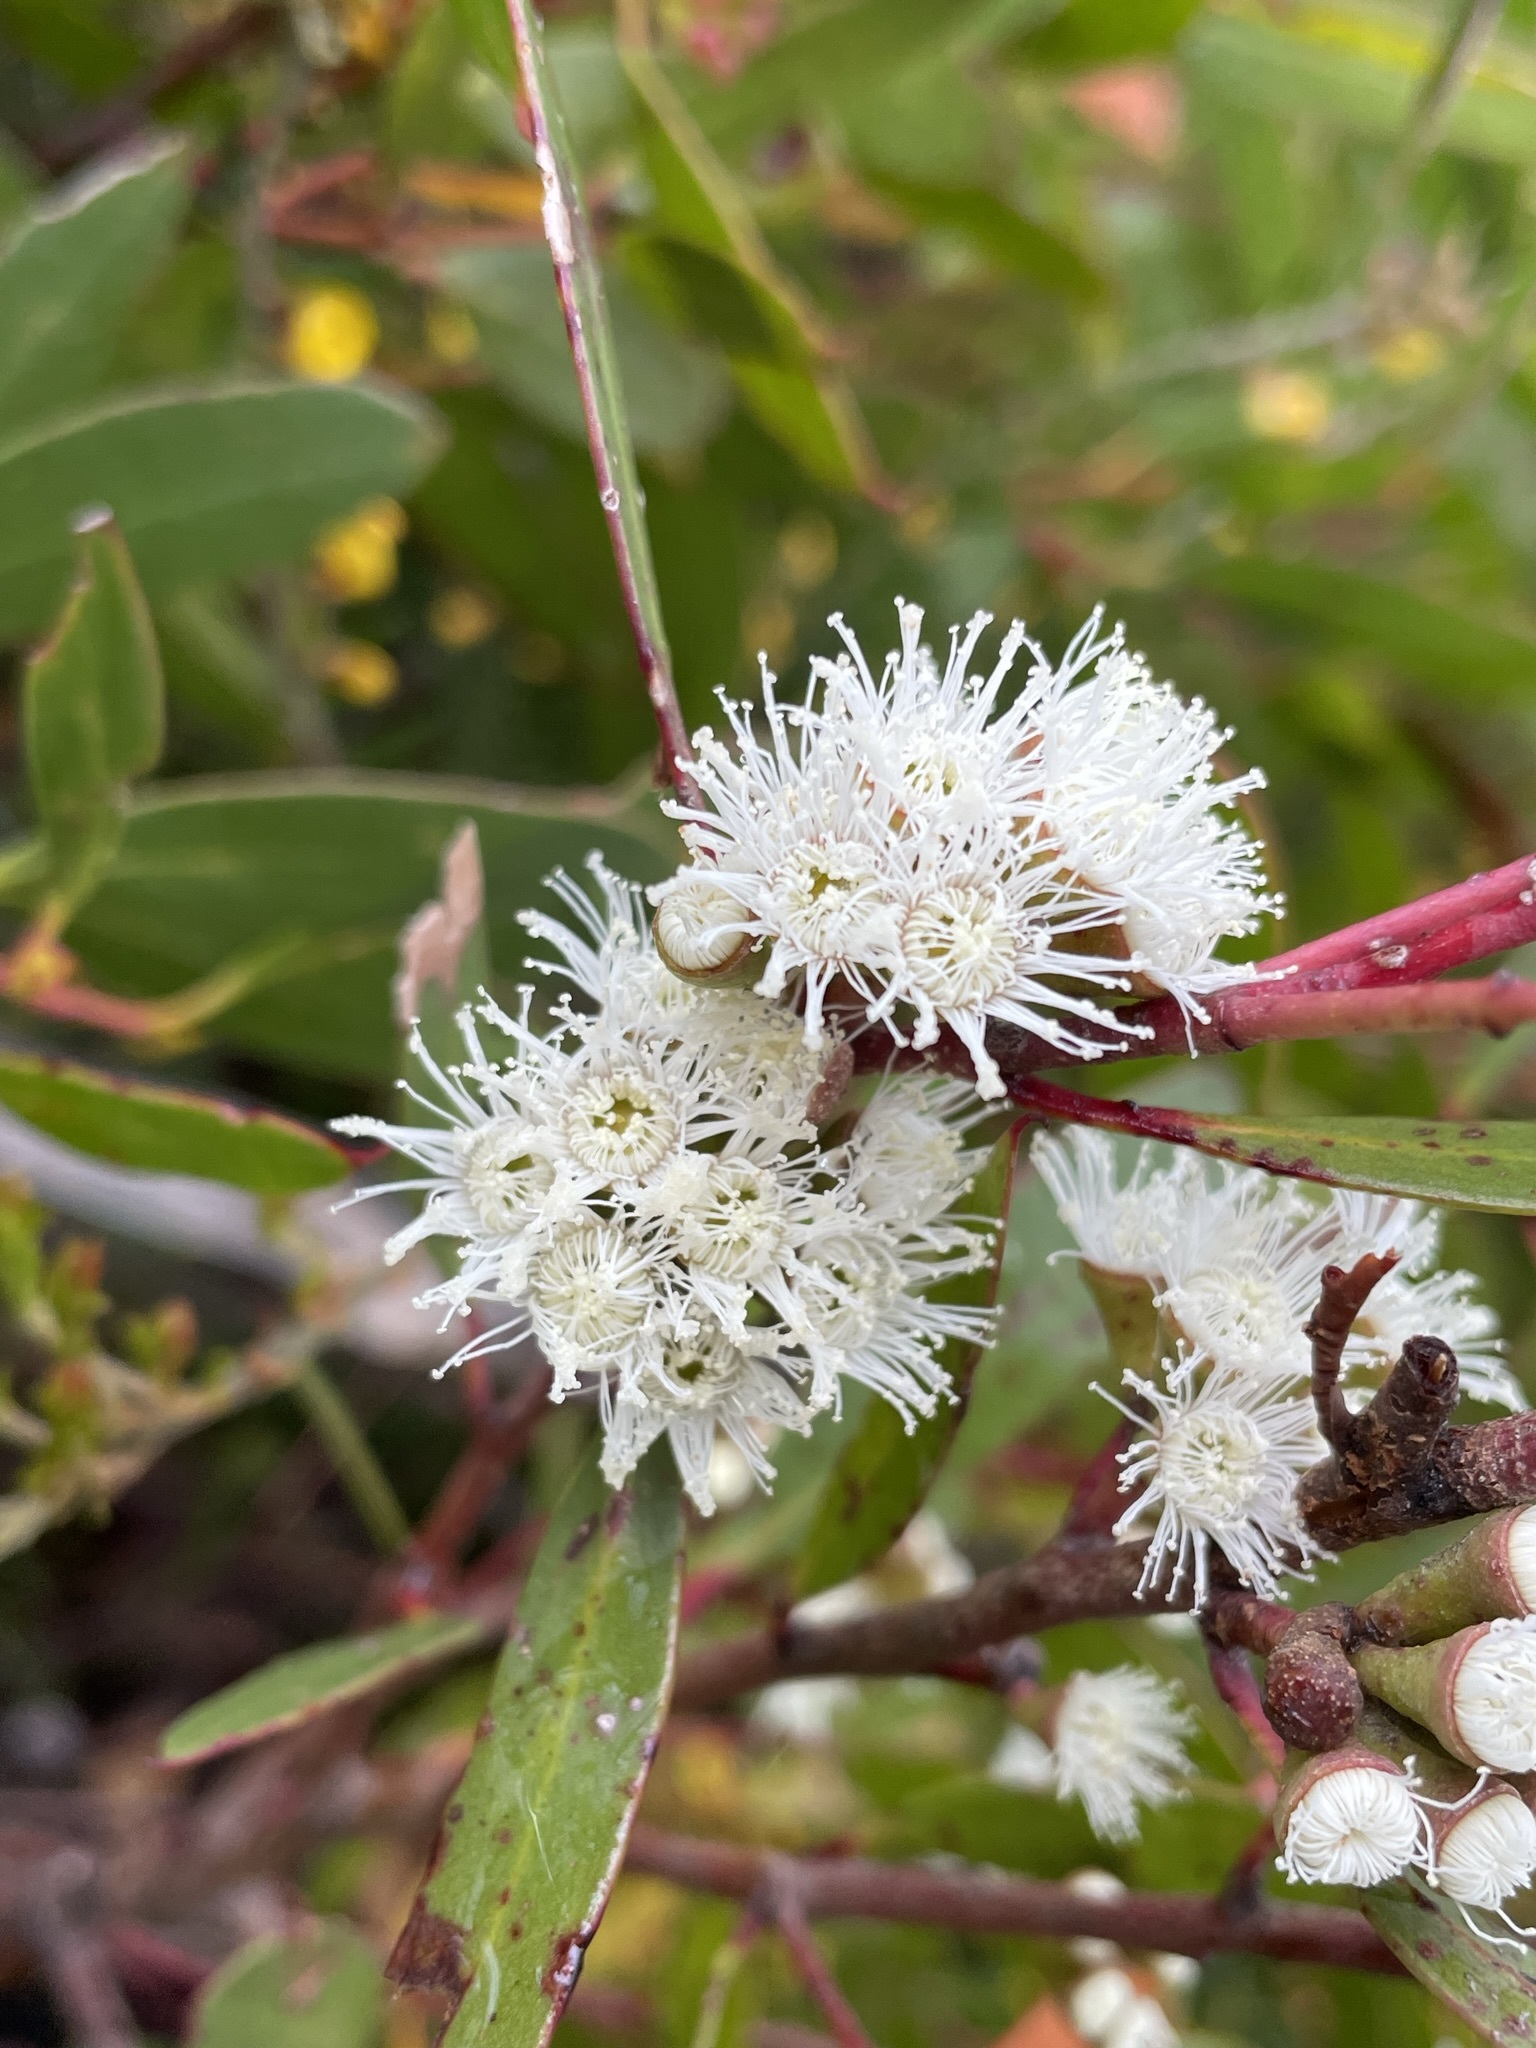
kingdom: Plantae
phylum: Tracheophyta
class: Magnoliopsida
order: Myrtales
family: Myrtaceae
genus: Eucalyptus
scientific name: Eucalyptus nitida
